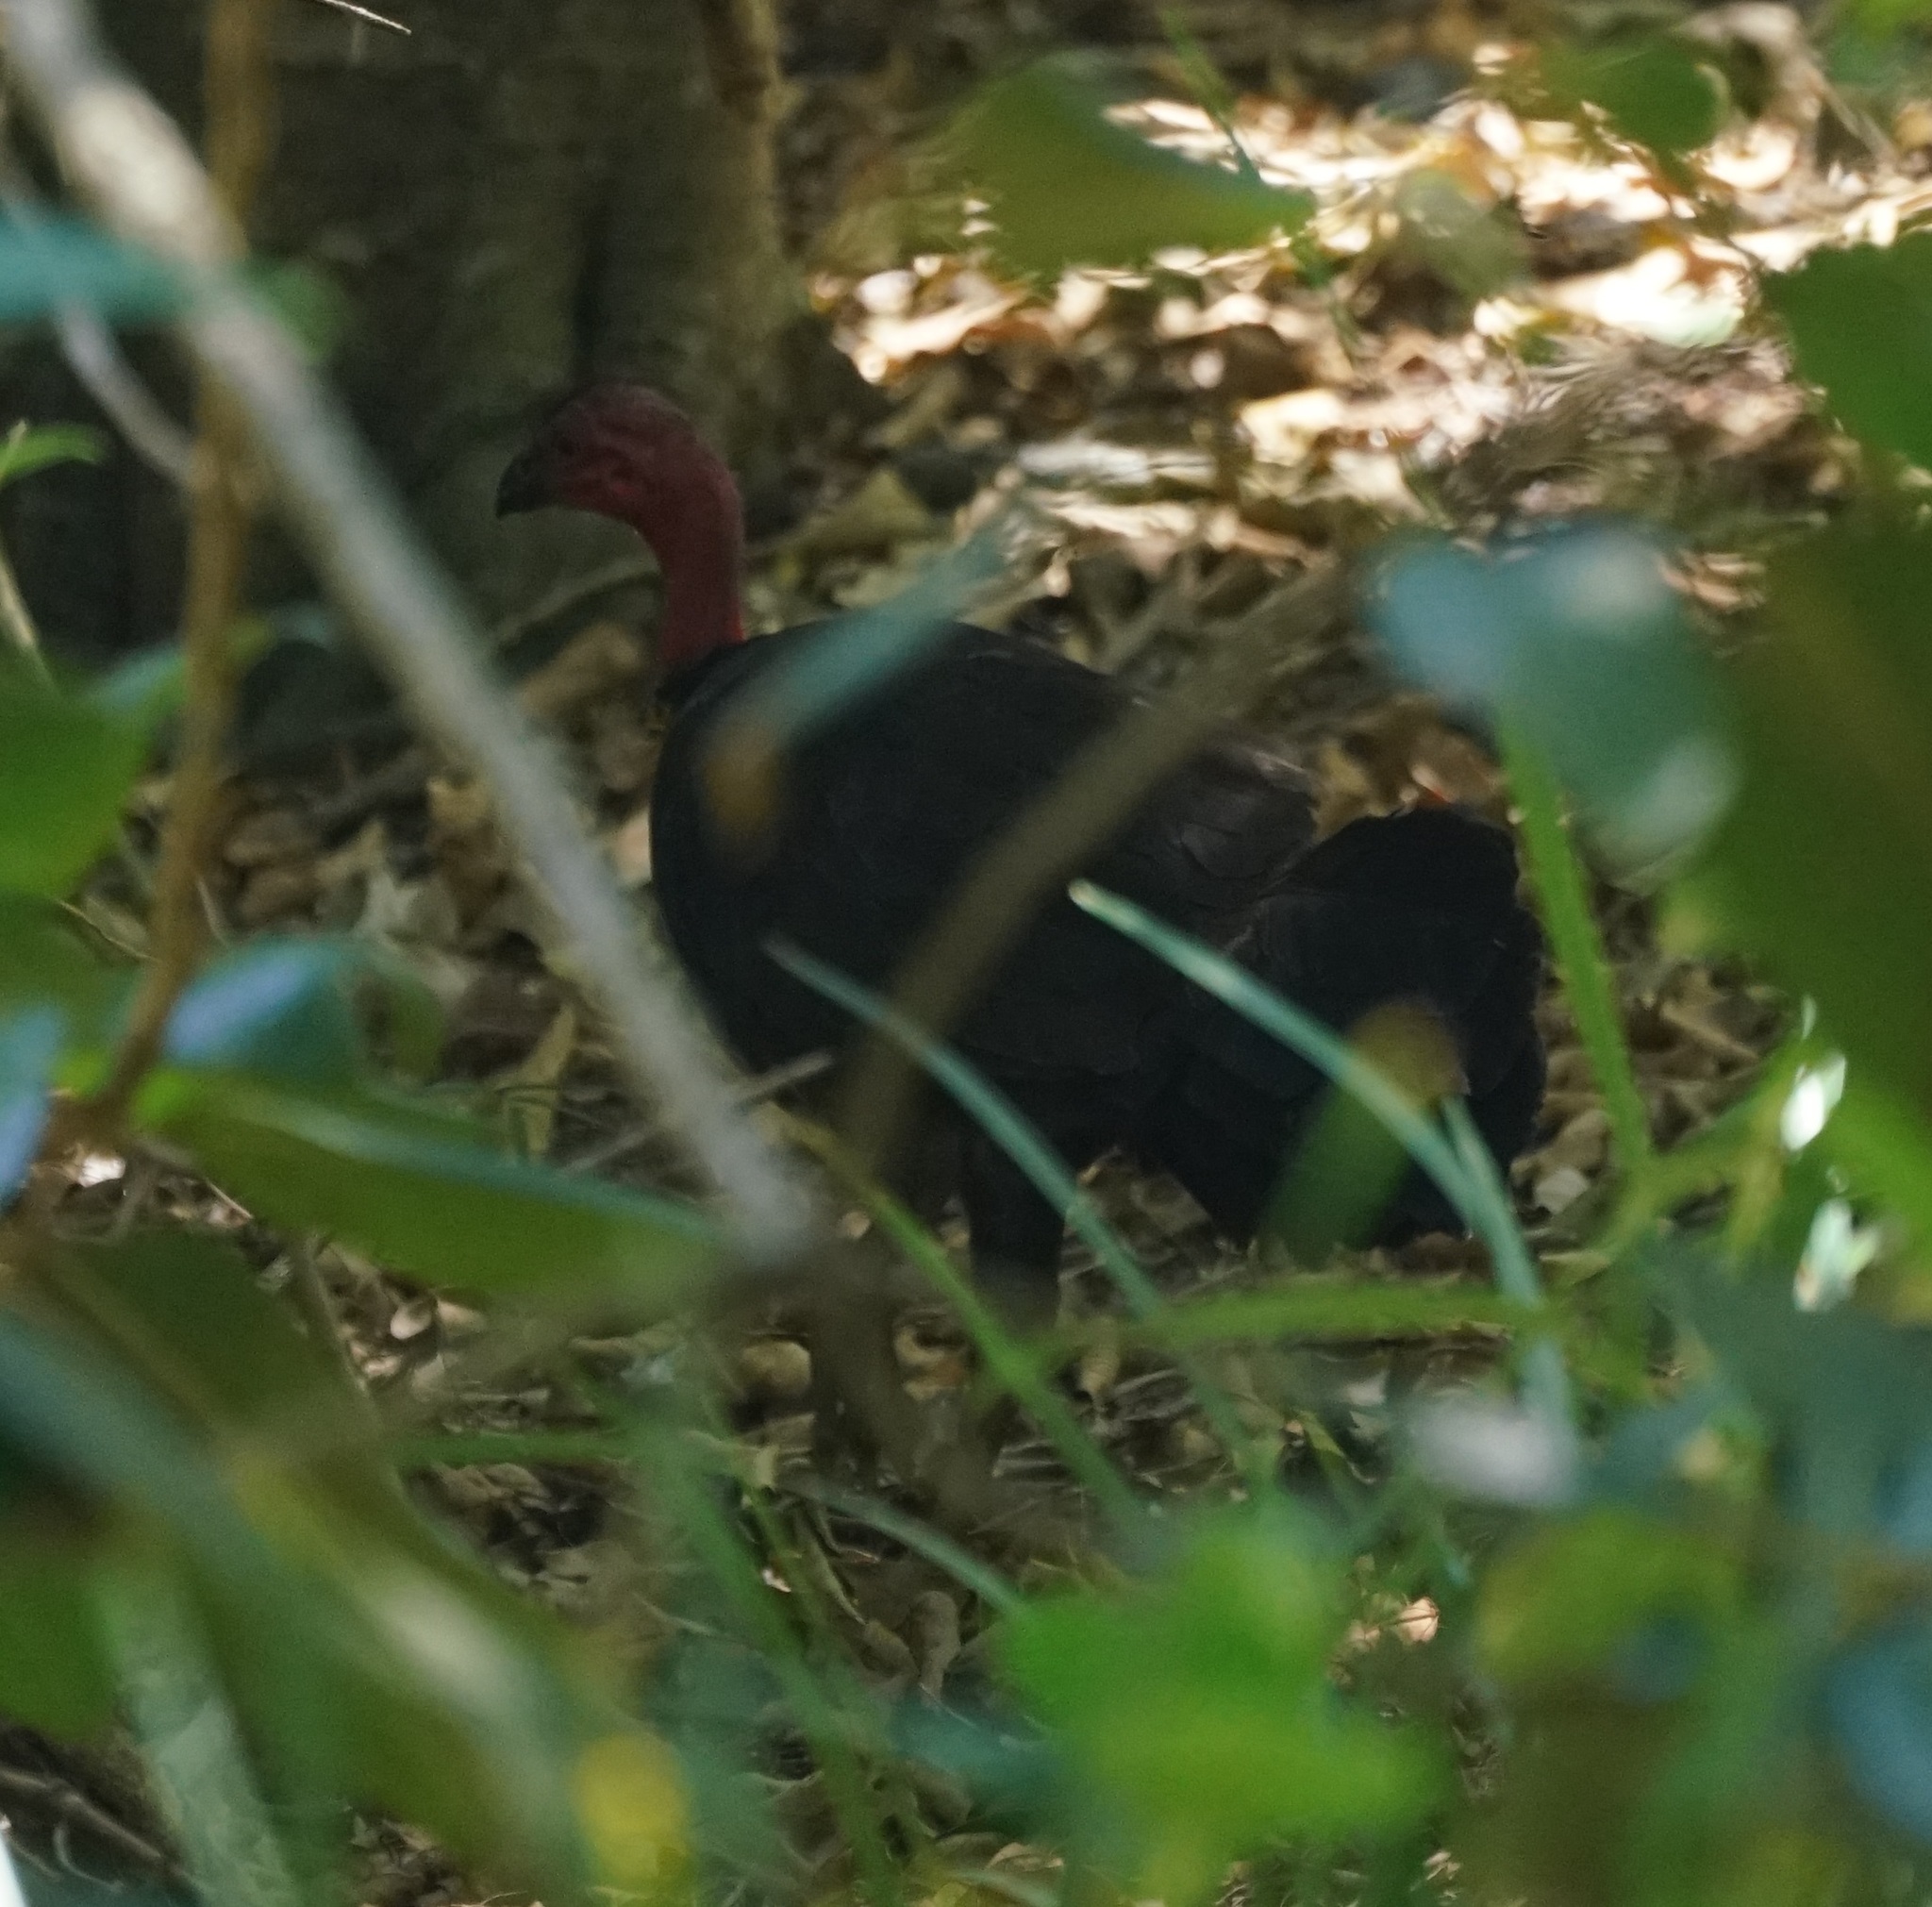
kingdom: Animalia
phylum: Chordata
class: Aves
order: Galliformes
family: Megapodiidae
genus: Alectura
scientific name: Alectura lathami
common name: Australian brushturkey
